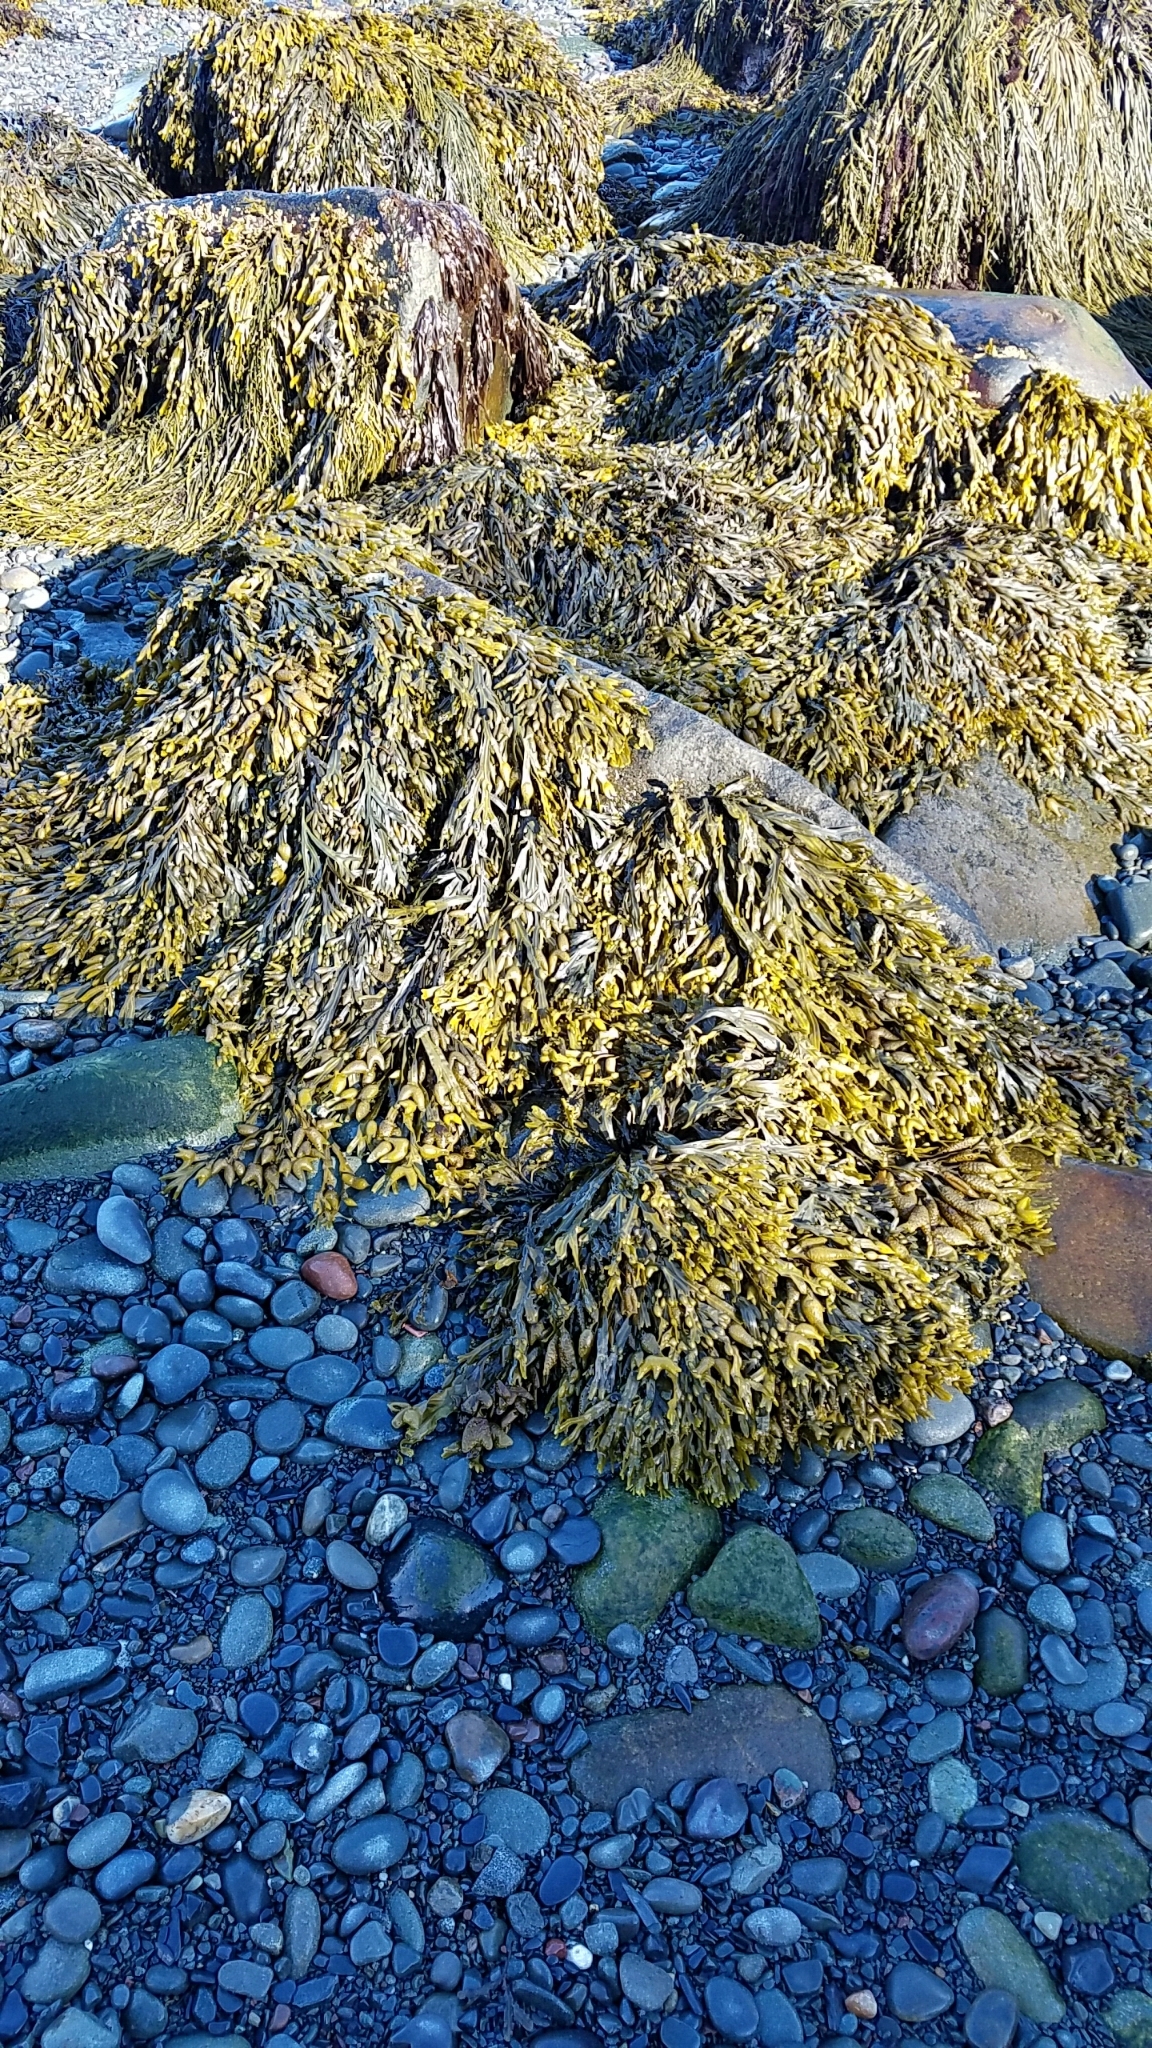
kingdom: Chromista
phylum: Ochrophyta
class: Phaeophyceae
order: Fucales
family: Fucaceae
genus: Fucus
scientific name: Fucus vesiculosus
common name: Bladder wrack
